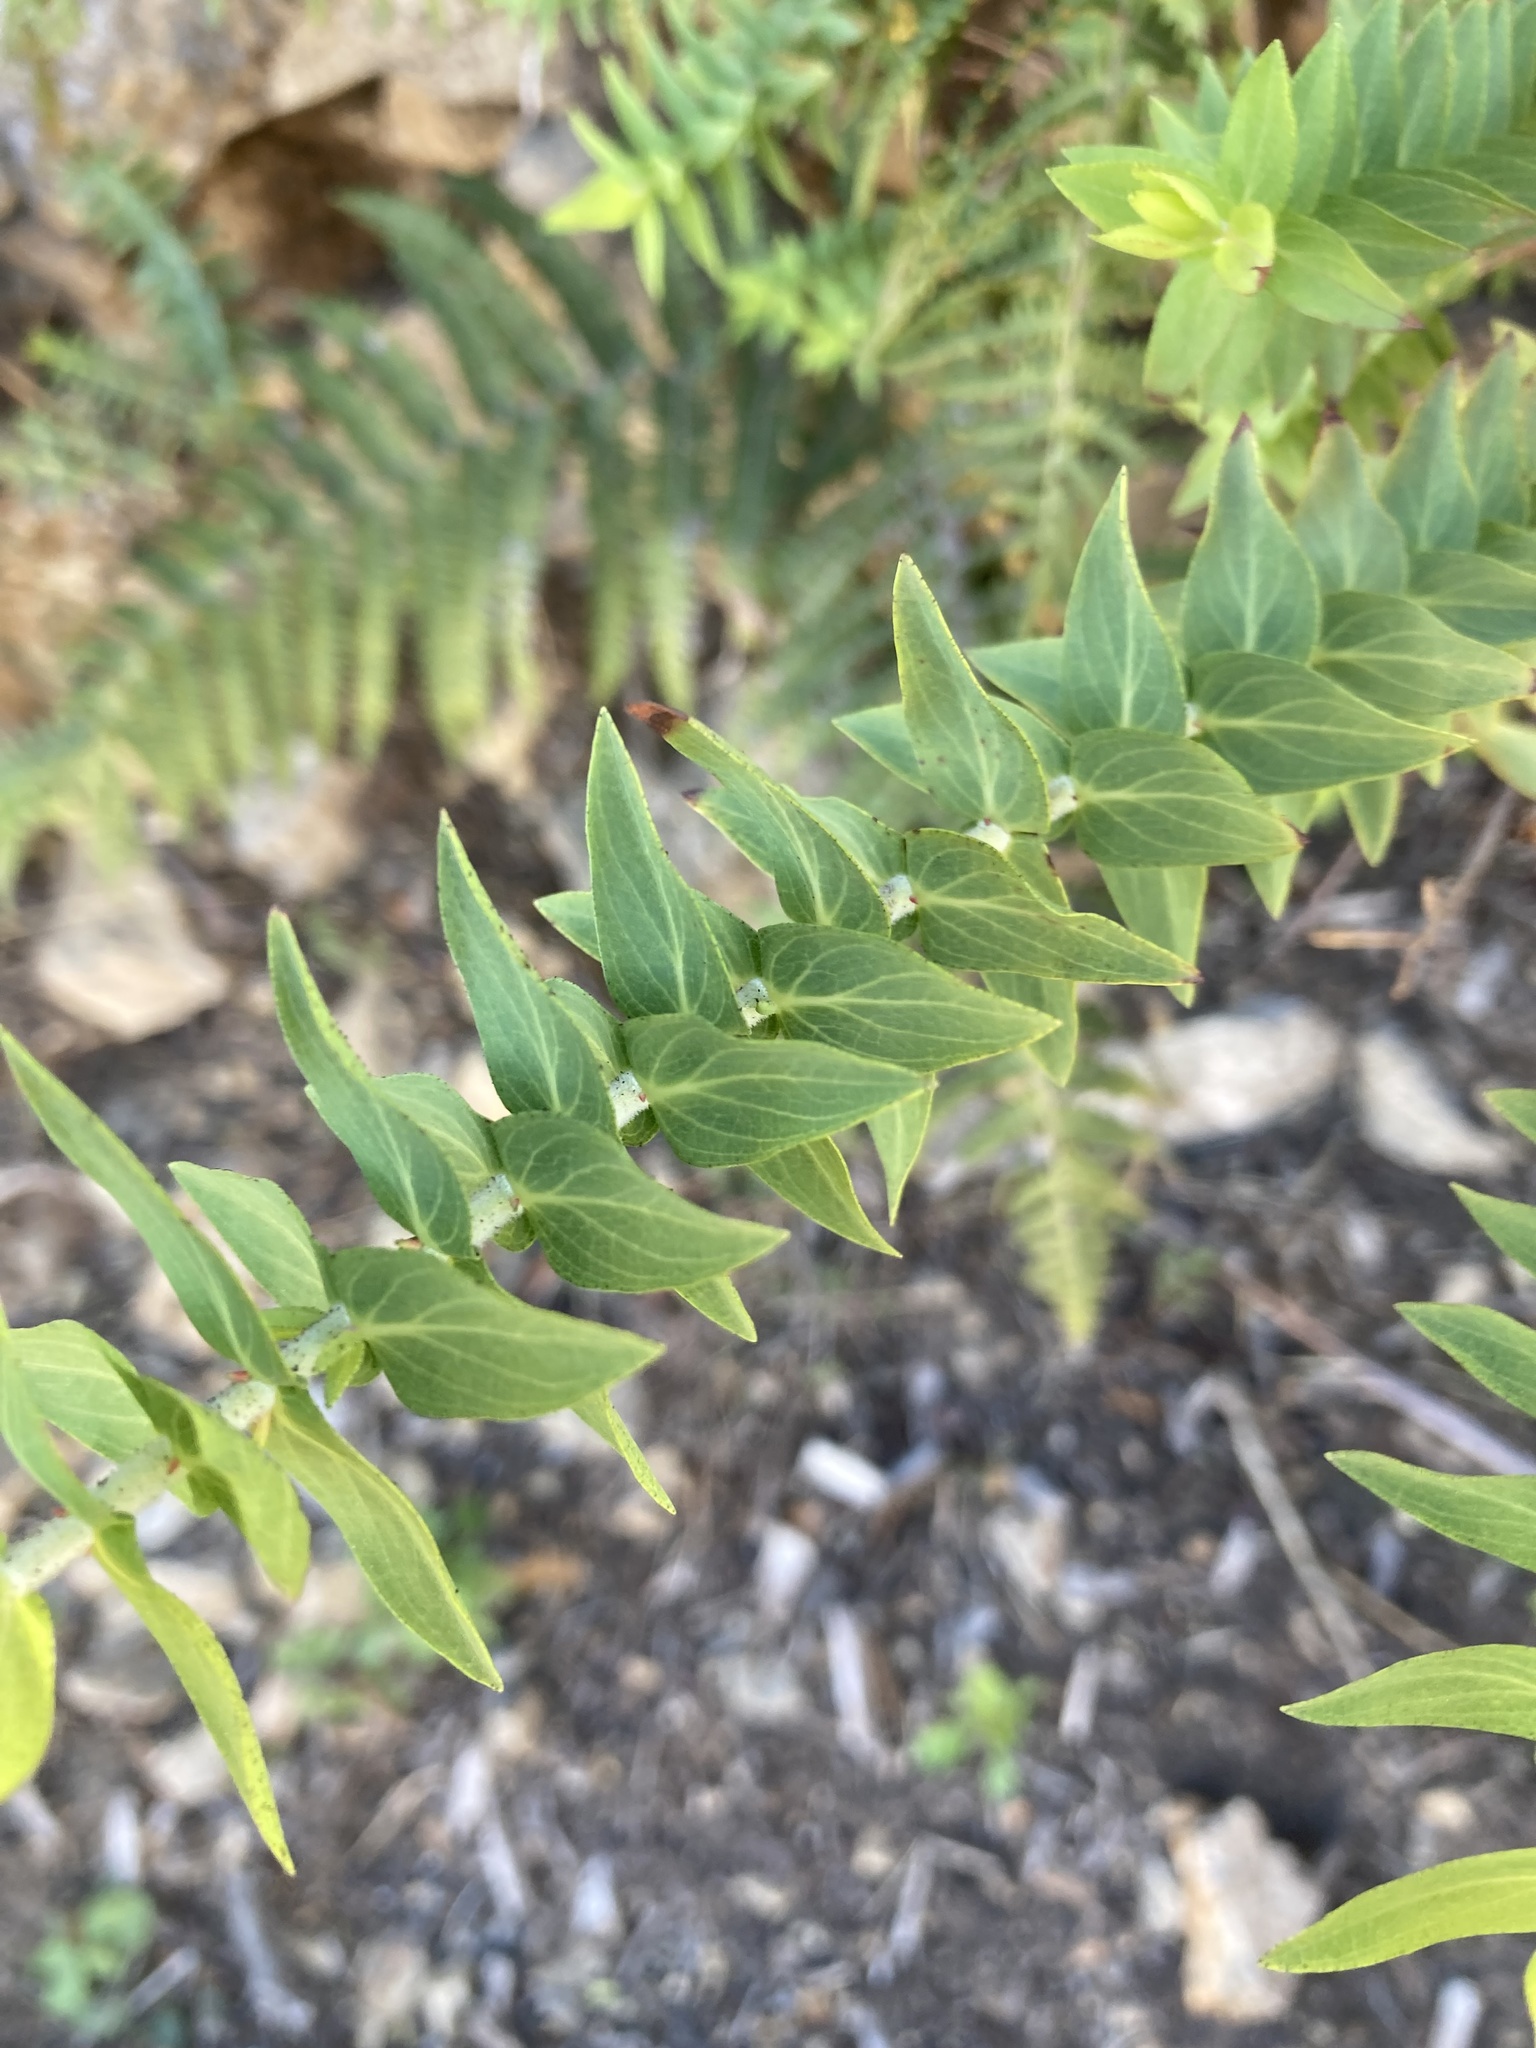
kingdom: Plantae
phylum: Tracheophyta
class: Magnoliopsida
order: Malpighiales
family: Hypericaceae
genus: Hypericum
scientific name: Hypericum reflexum
